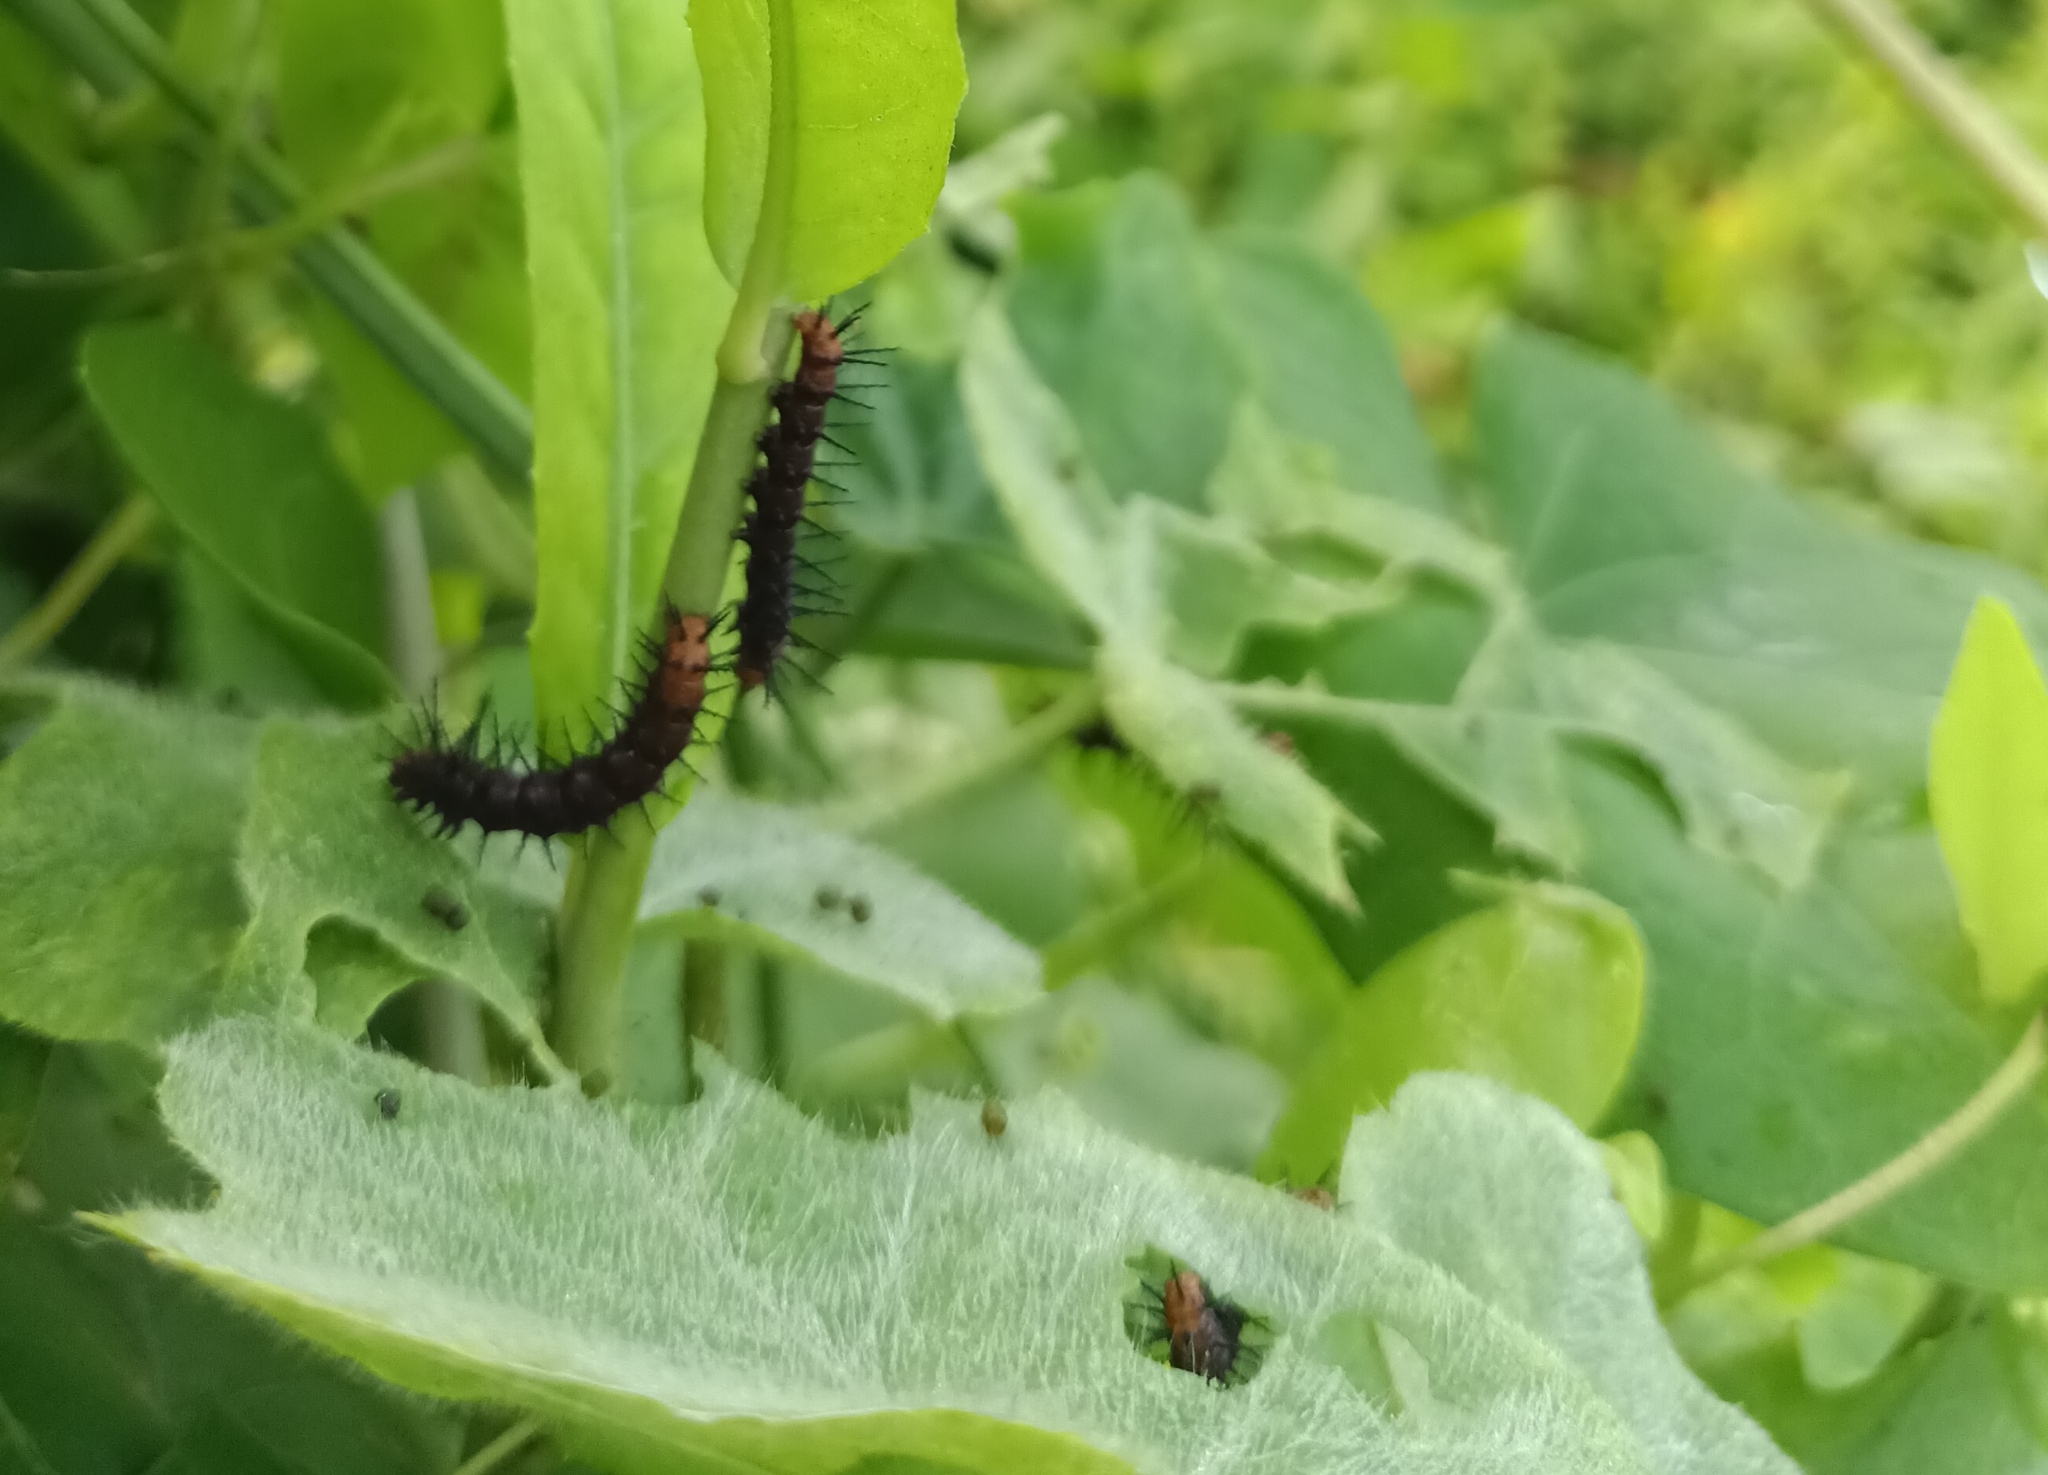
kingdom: Animalia
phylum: Arthropoda
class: Insecta
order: Lepidoptera
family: Nymphalidae
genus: Acraea
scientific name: Acraea terpsicore
